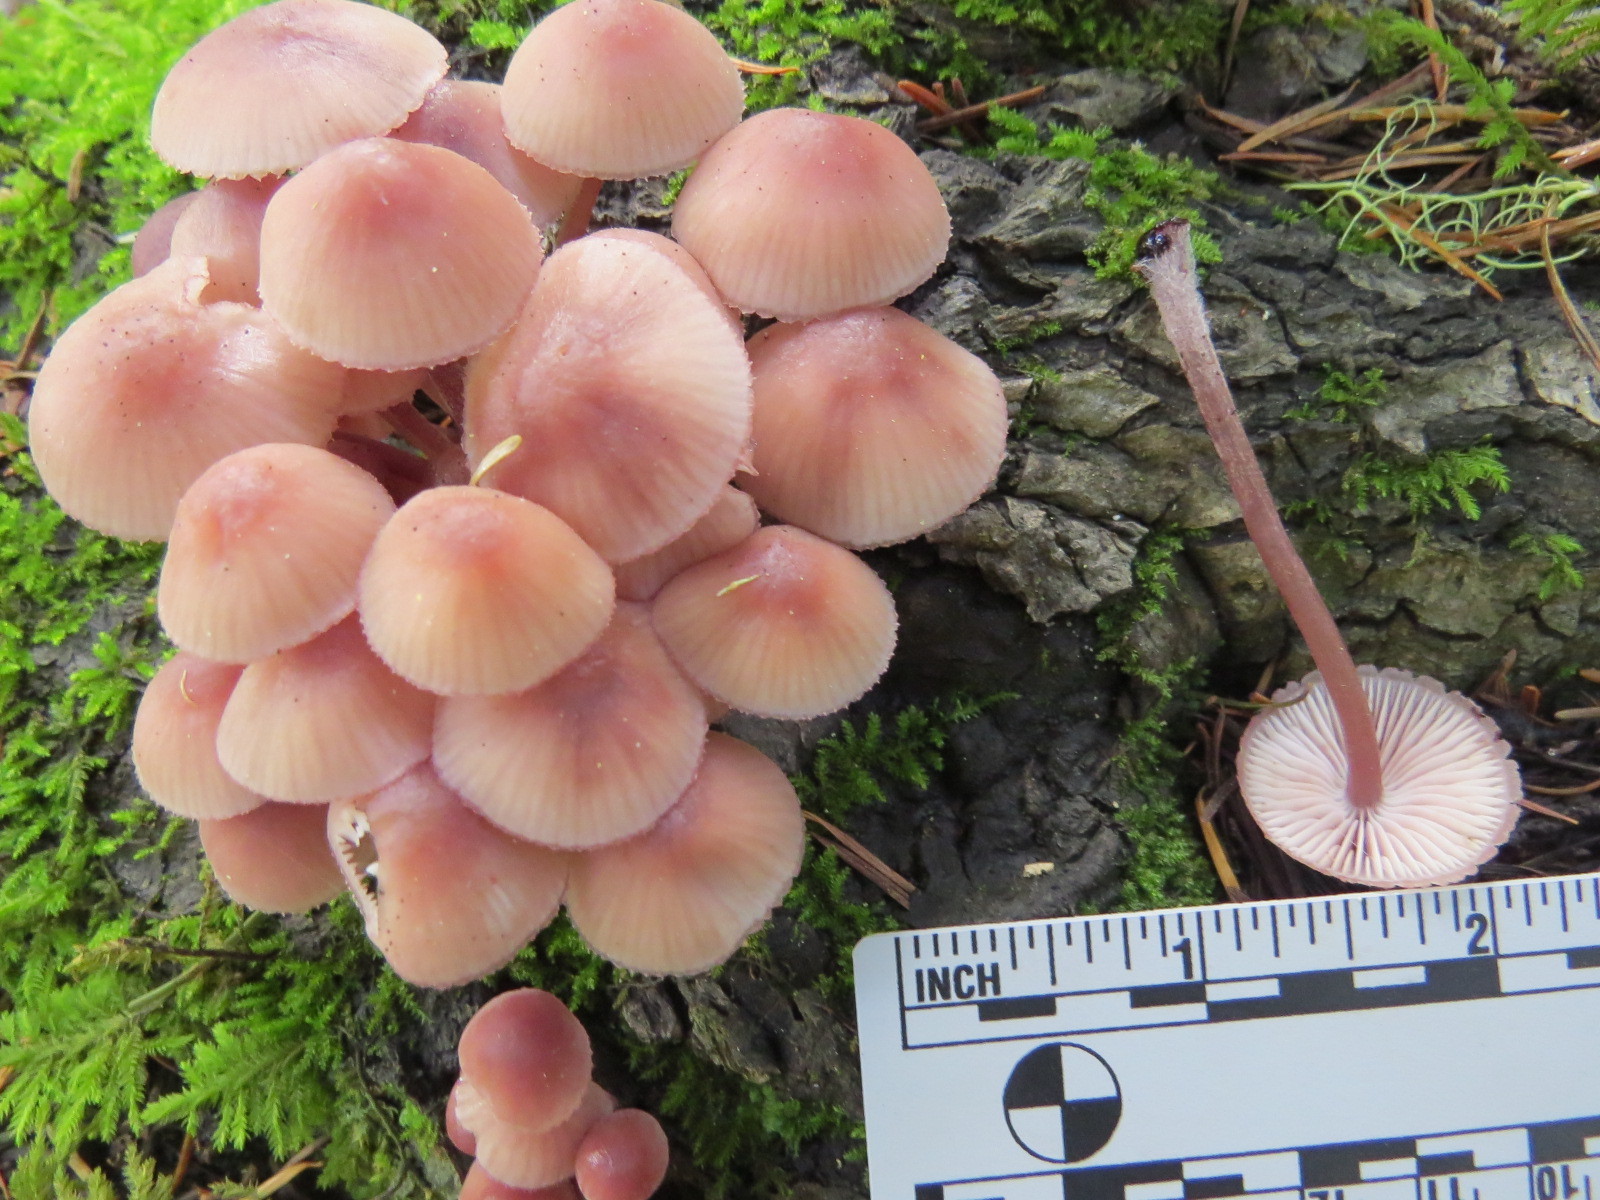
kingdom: Fungi
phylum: Basidiomycota
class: Agaricomycetes
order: Agaricales
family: Mycenaceae
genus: Mycena
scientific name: Mycena haematopus
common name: Burgundydrop bonnet
